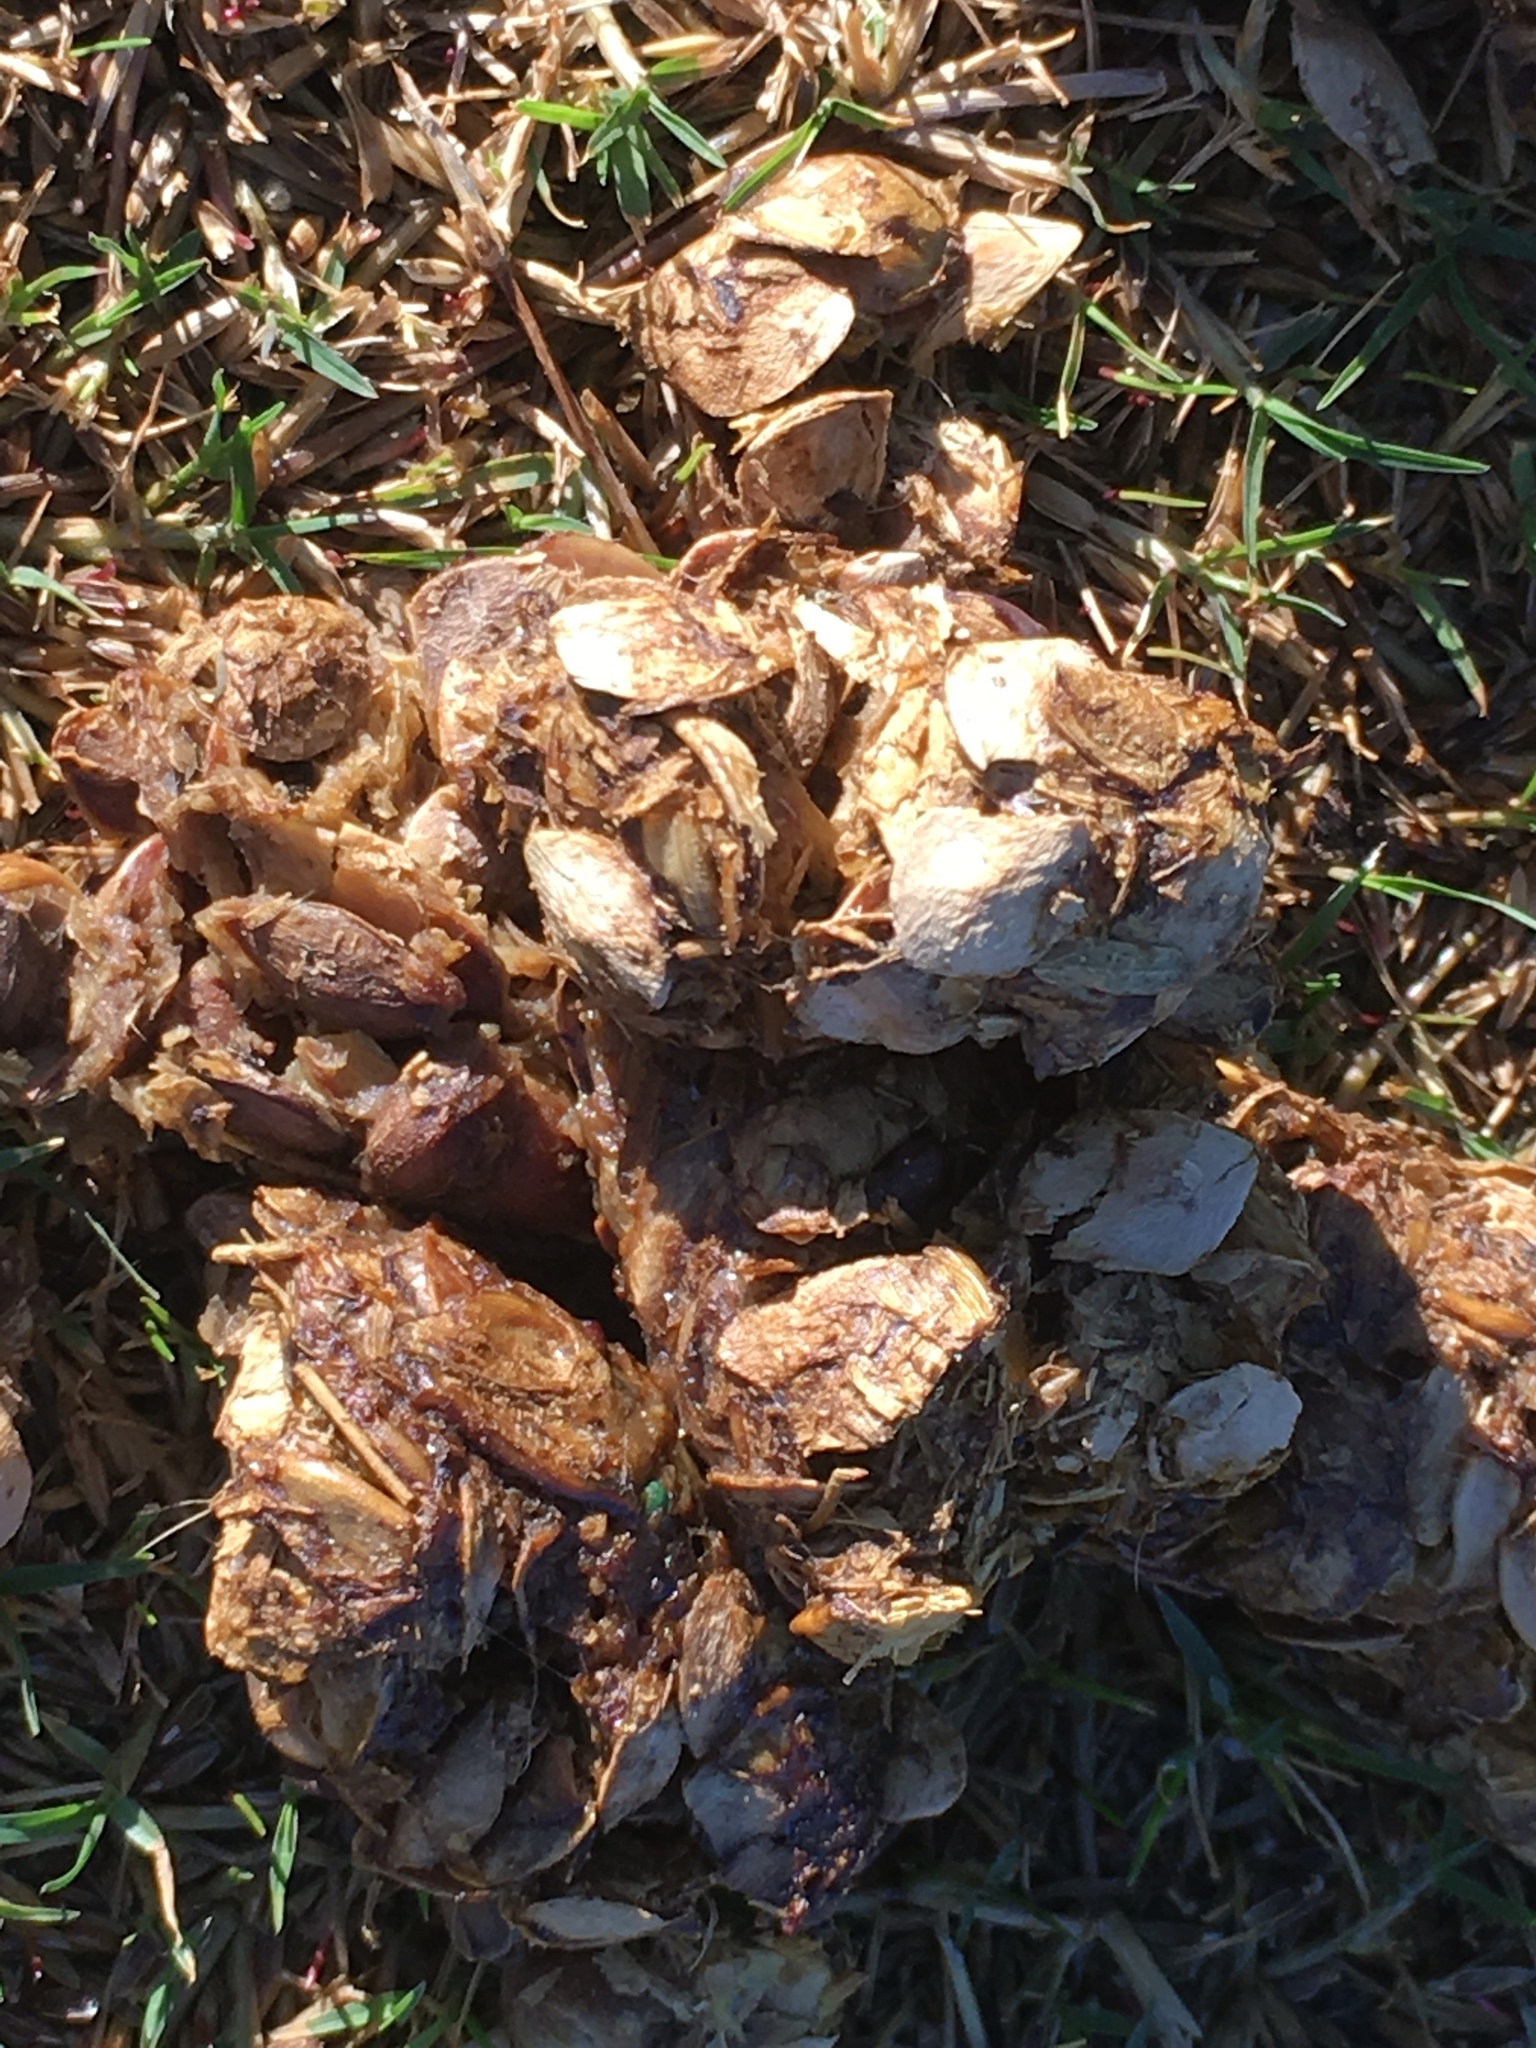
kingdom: Animalia
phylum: Chordata
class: Mammalia
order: Carnivora
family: Canidae
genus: Canis
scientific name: Canis latrans
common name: Coyote
